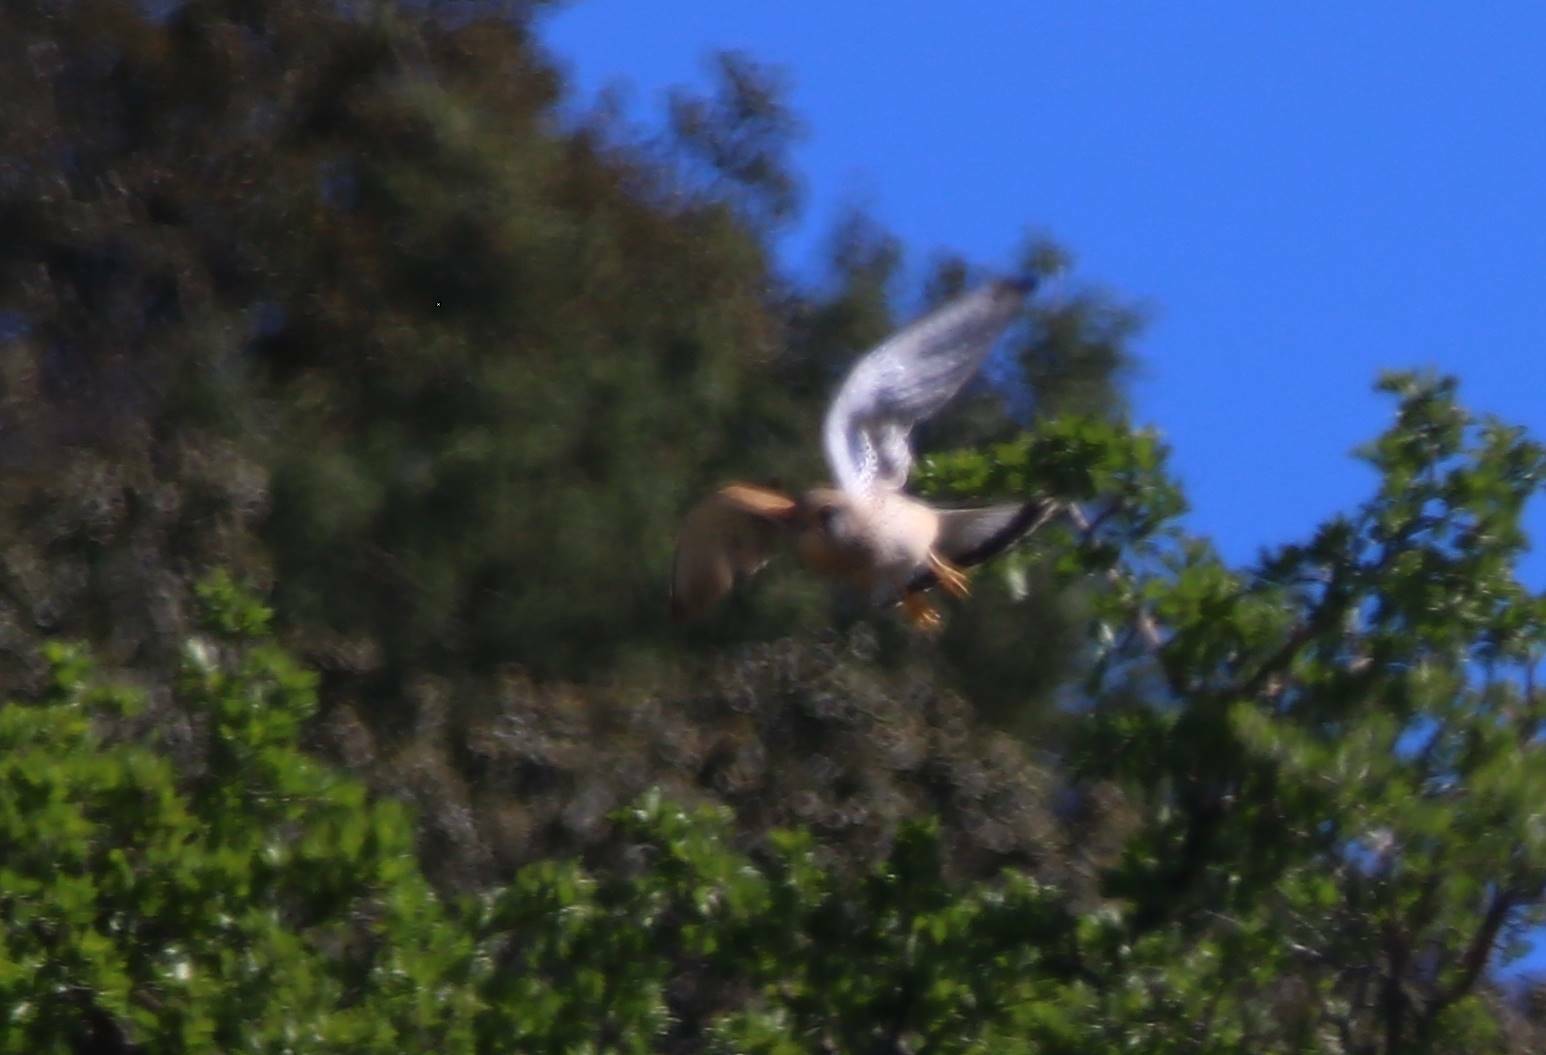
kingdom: Animalia
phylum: Chordata
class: Aves
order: Falconiformes
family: Falconidae
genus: Falco
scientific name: Falco tinnunculus
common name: Common kestrel
